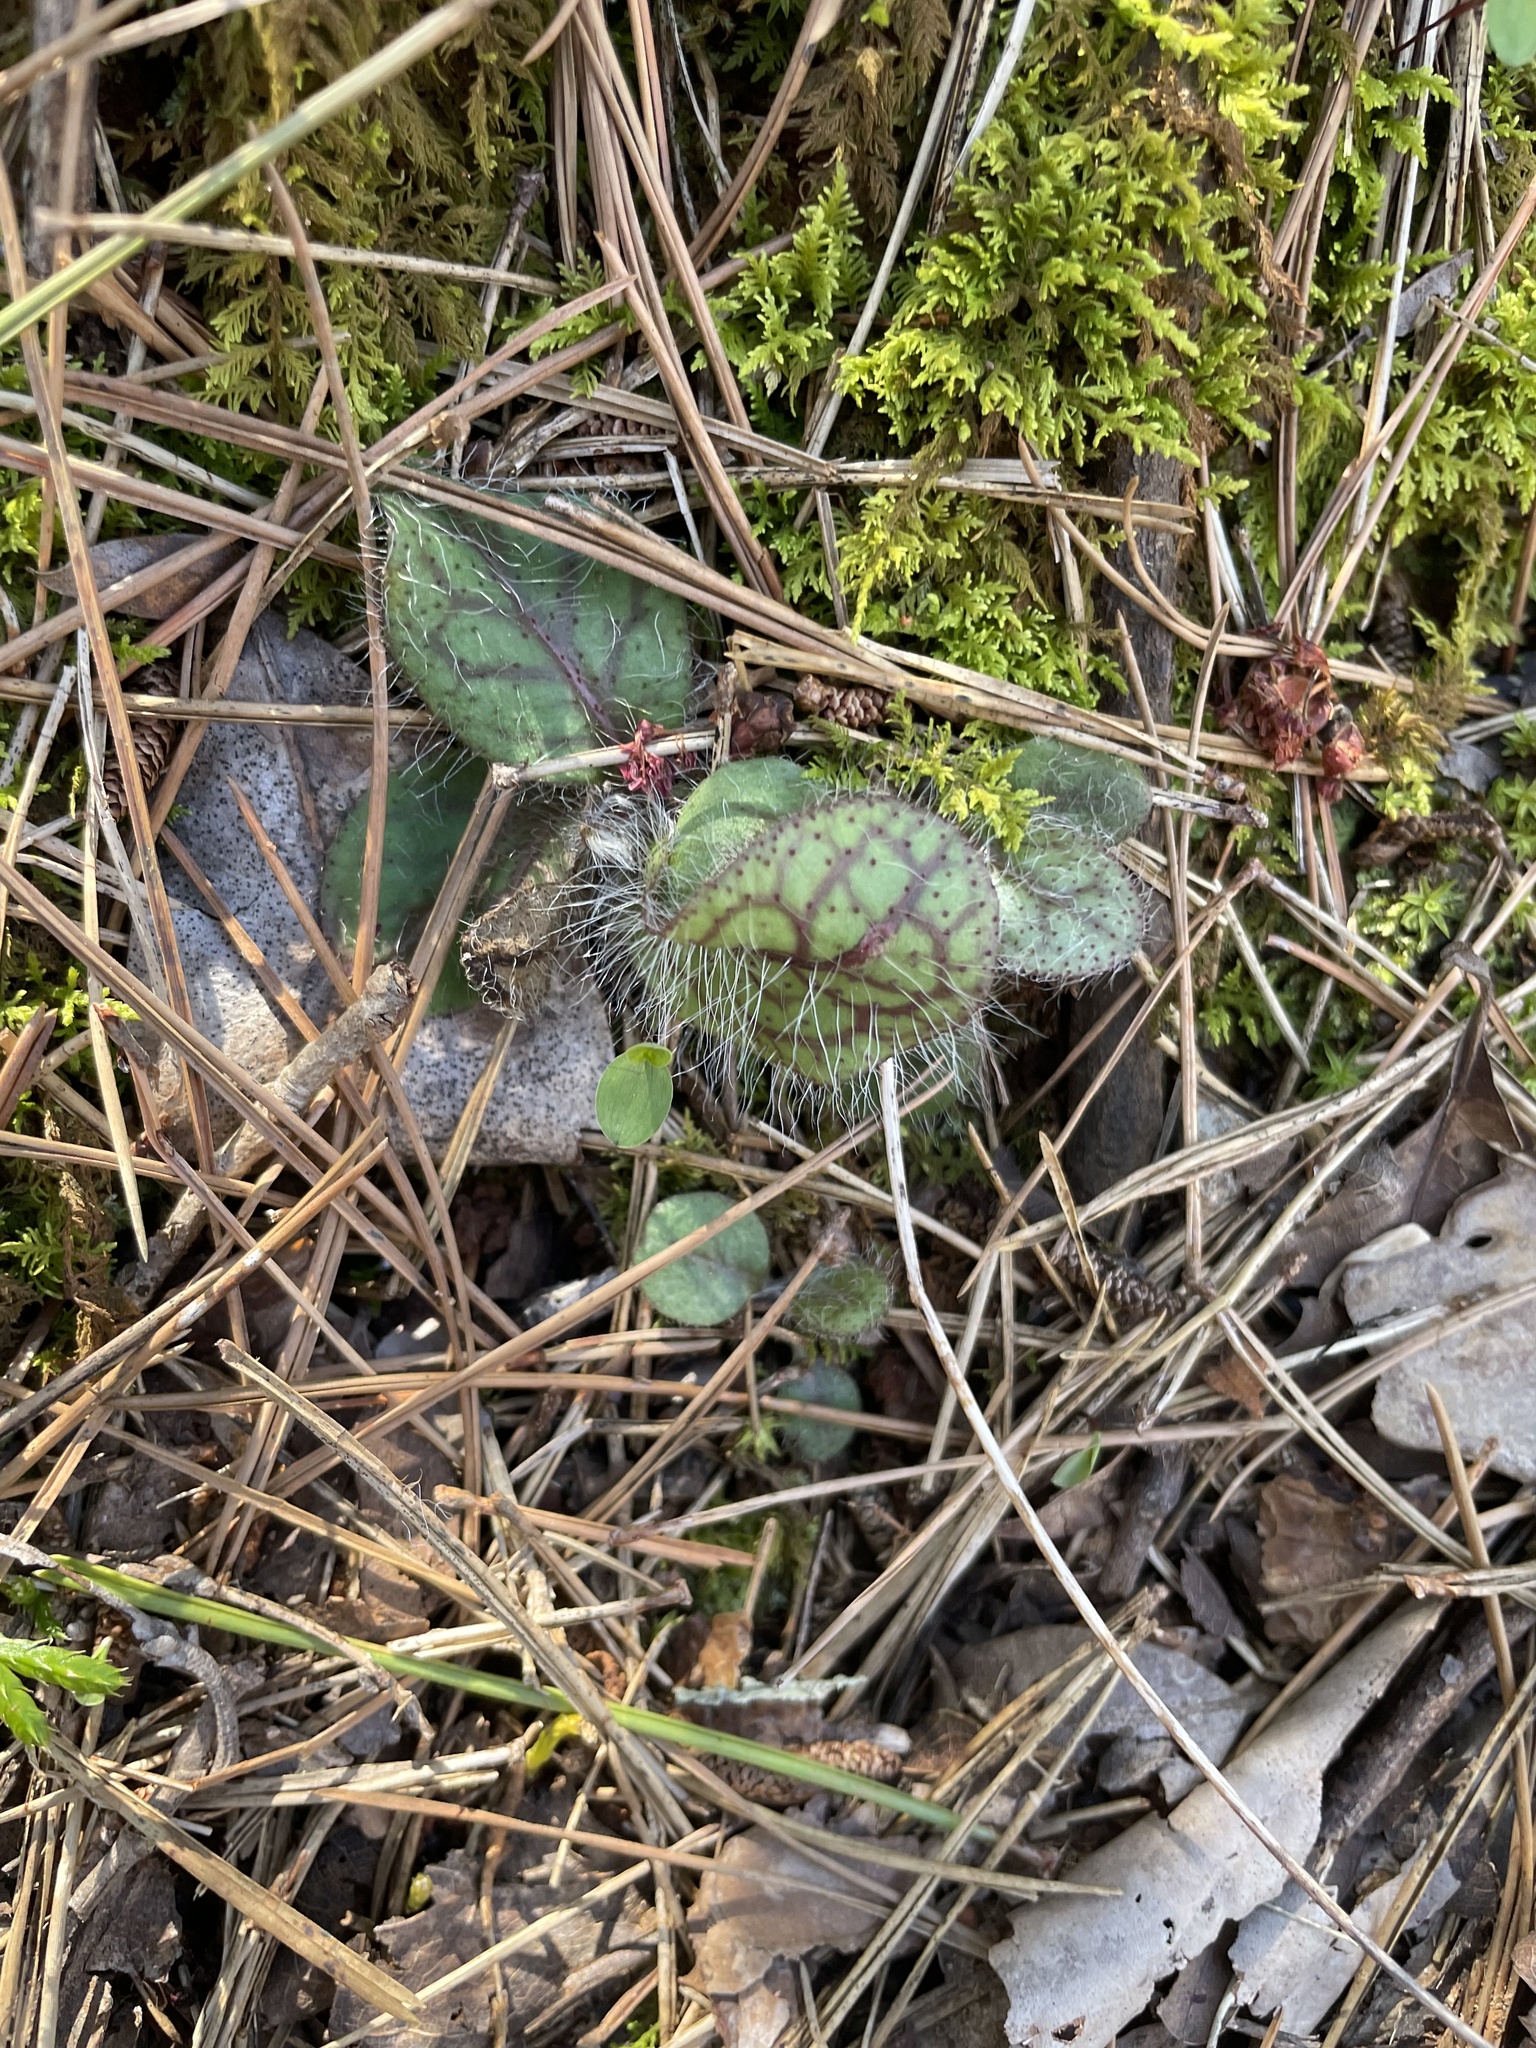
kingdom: Plantae
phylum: Tracheophyta
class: Magnoliopsida
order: Asterales
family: Asteraceae
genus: Hieracium
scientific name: Hieracium venosum
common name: Rattlesnake hawkweed
